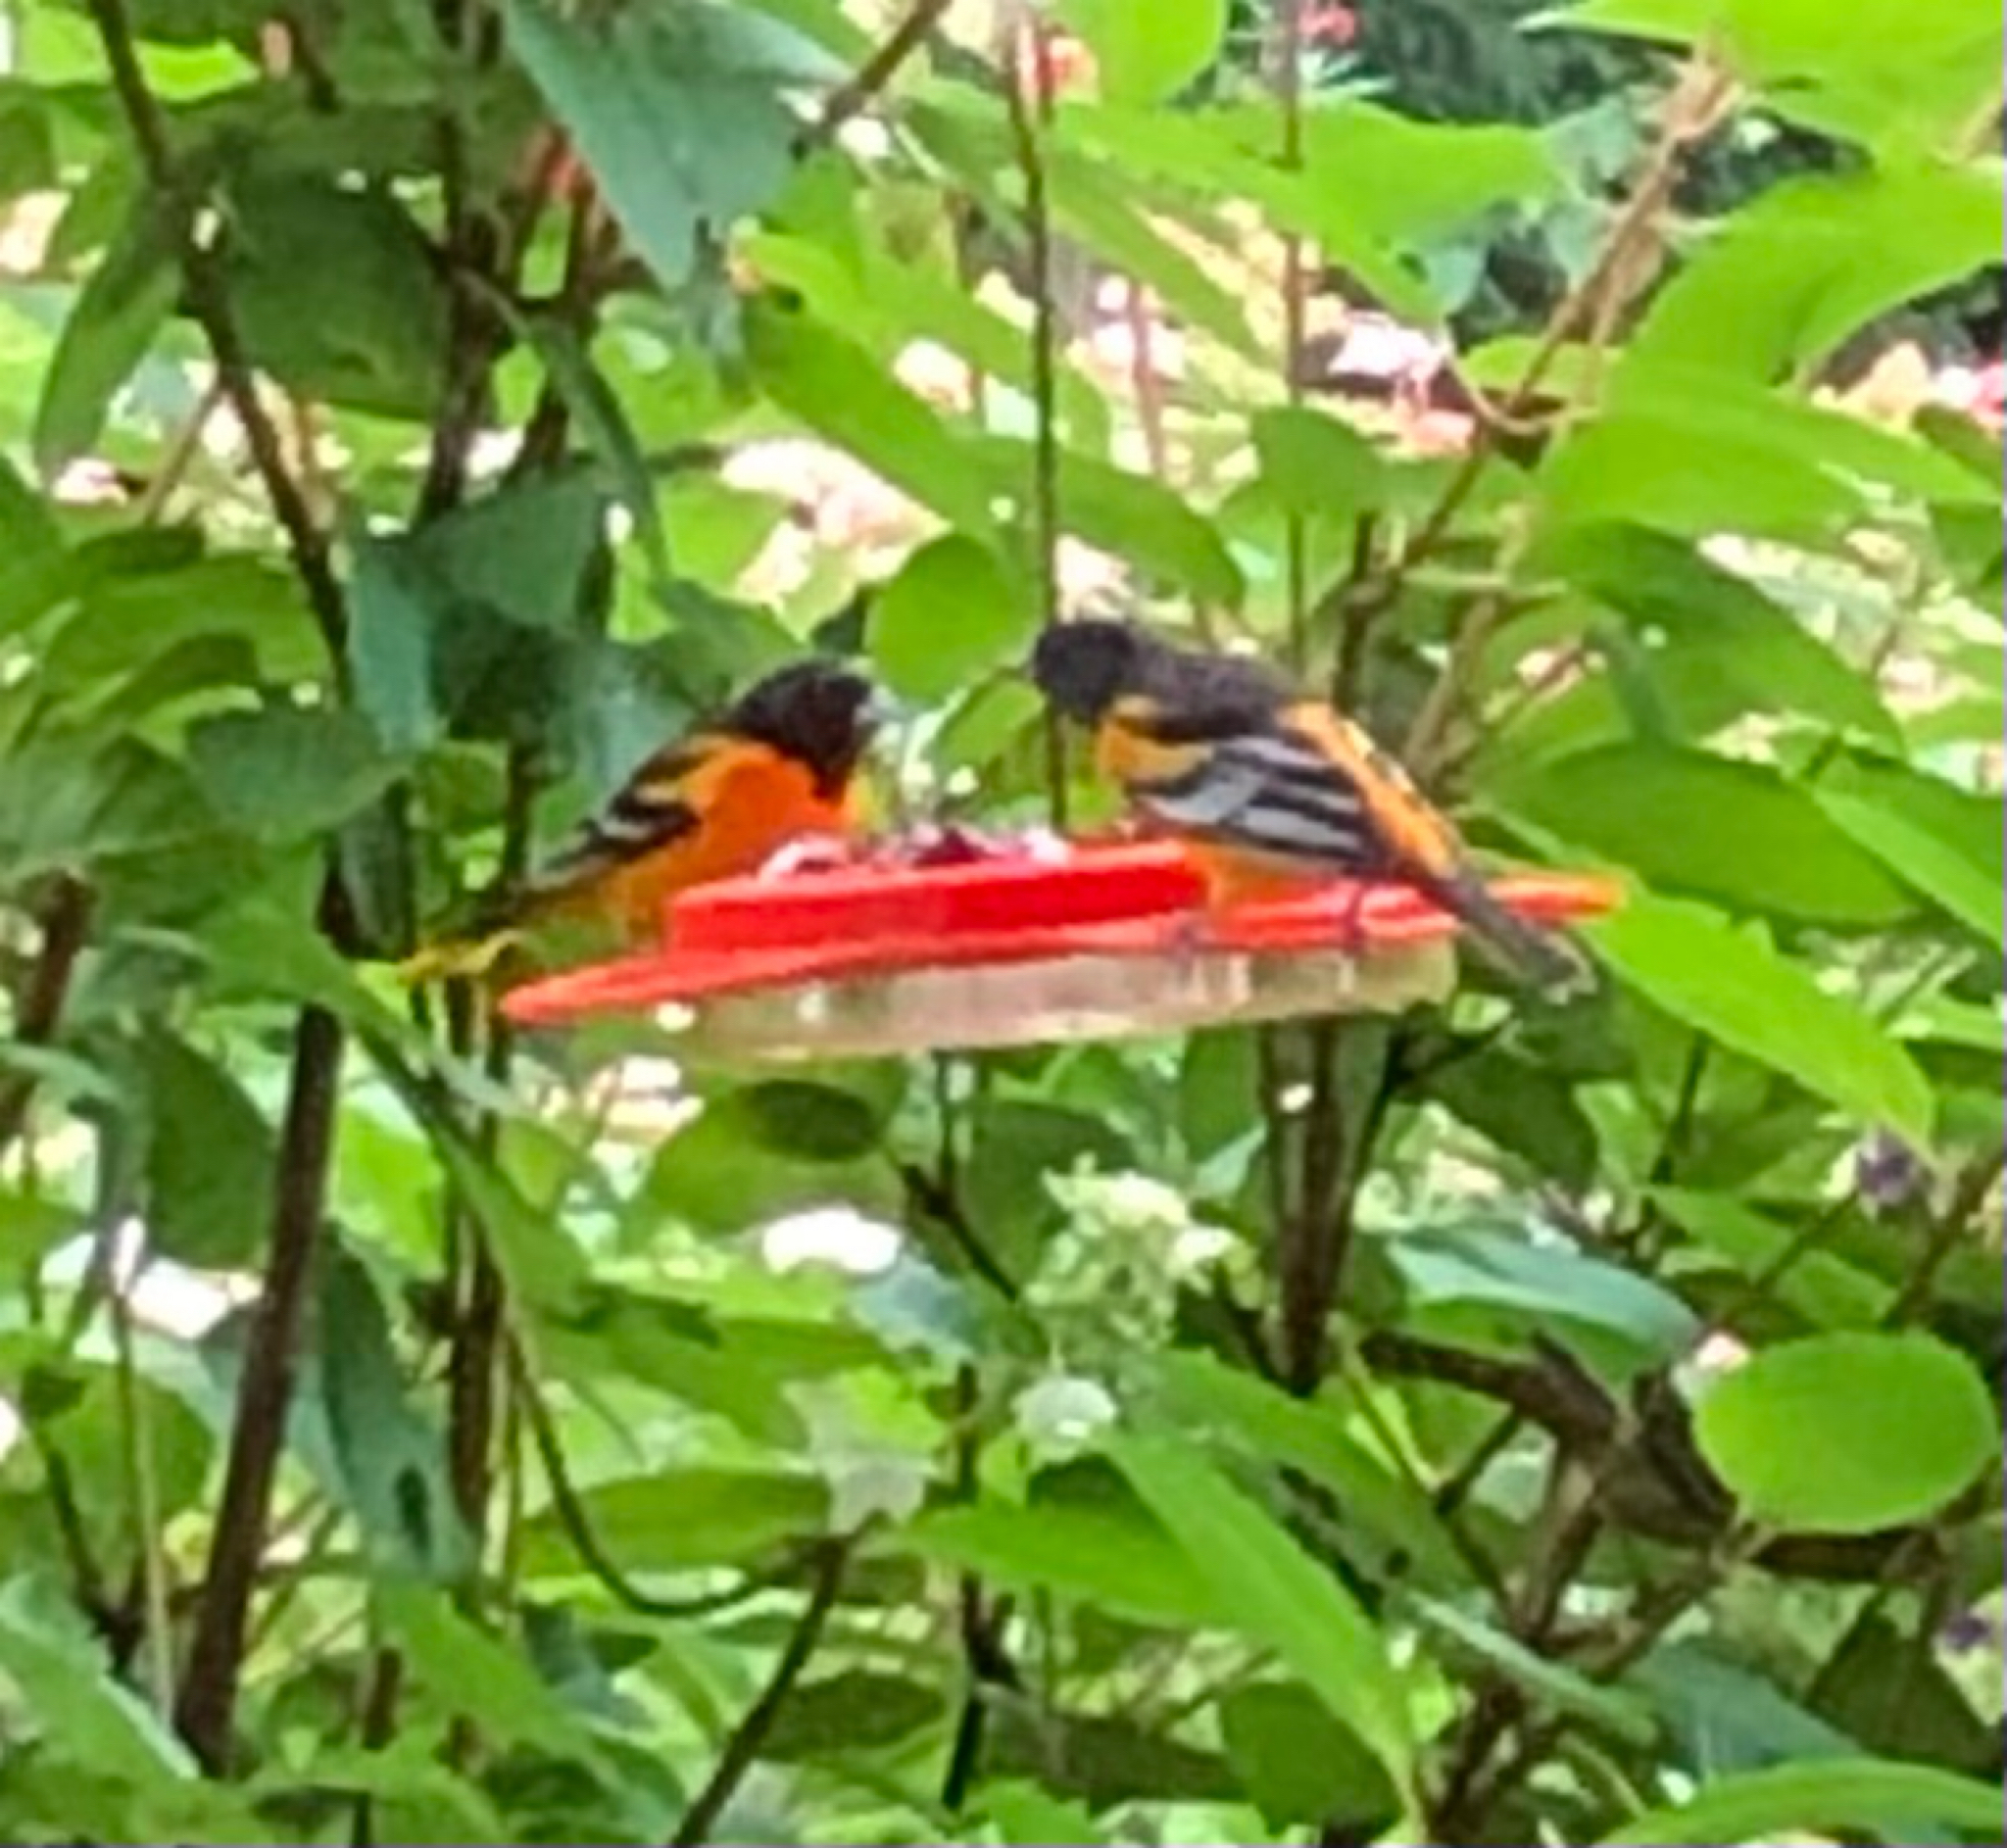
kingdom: Animalia
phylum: Chordata
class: Aves
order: Passeriformes
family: Icteridae
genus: Icterus
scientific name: Icterus galbula
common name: Baltimore oriole
